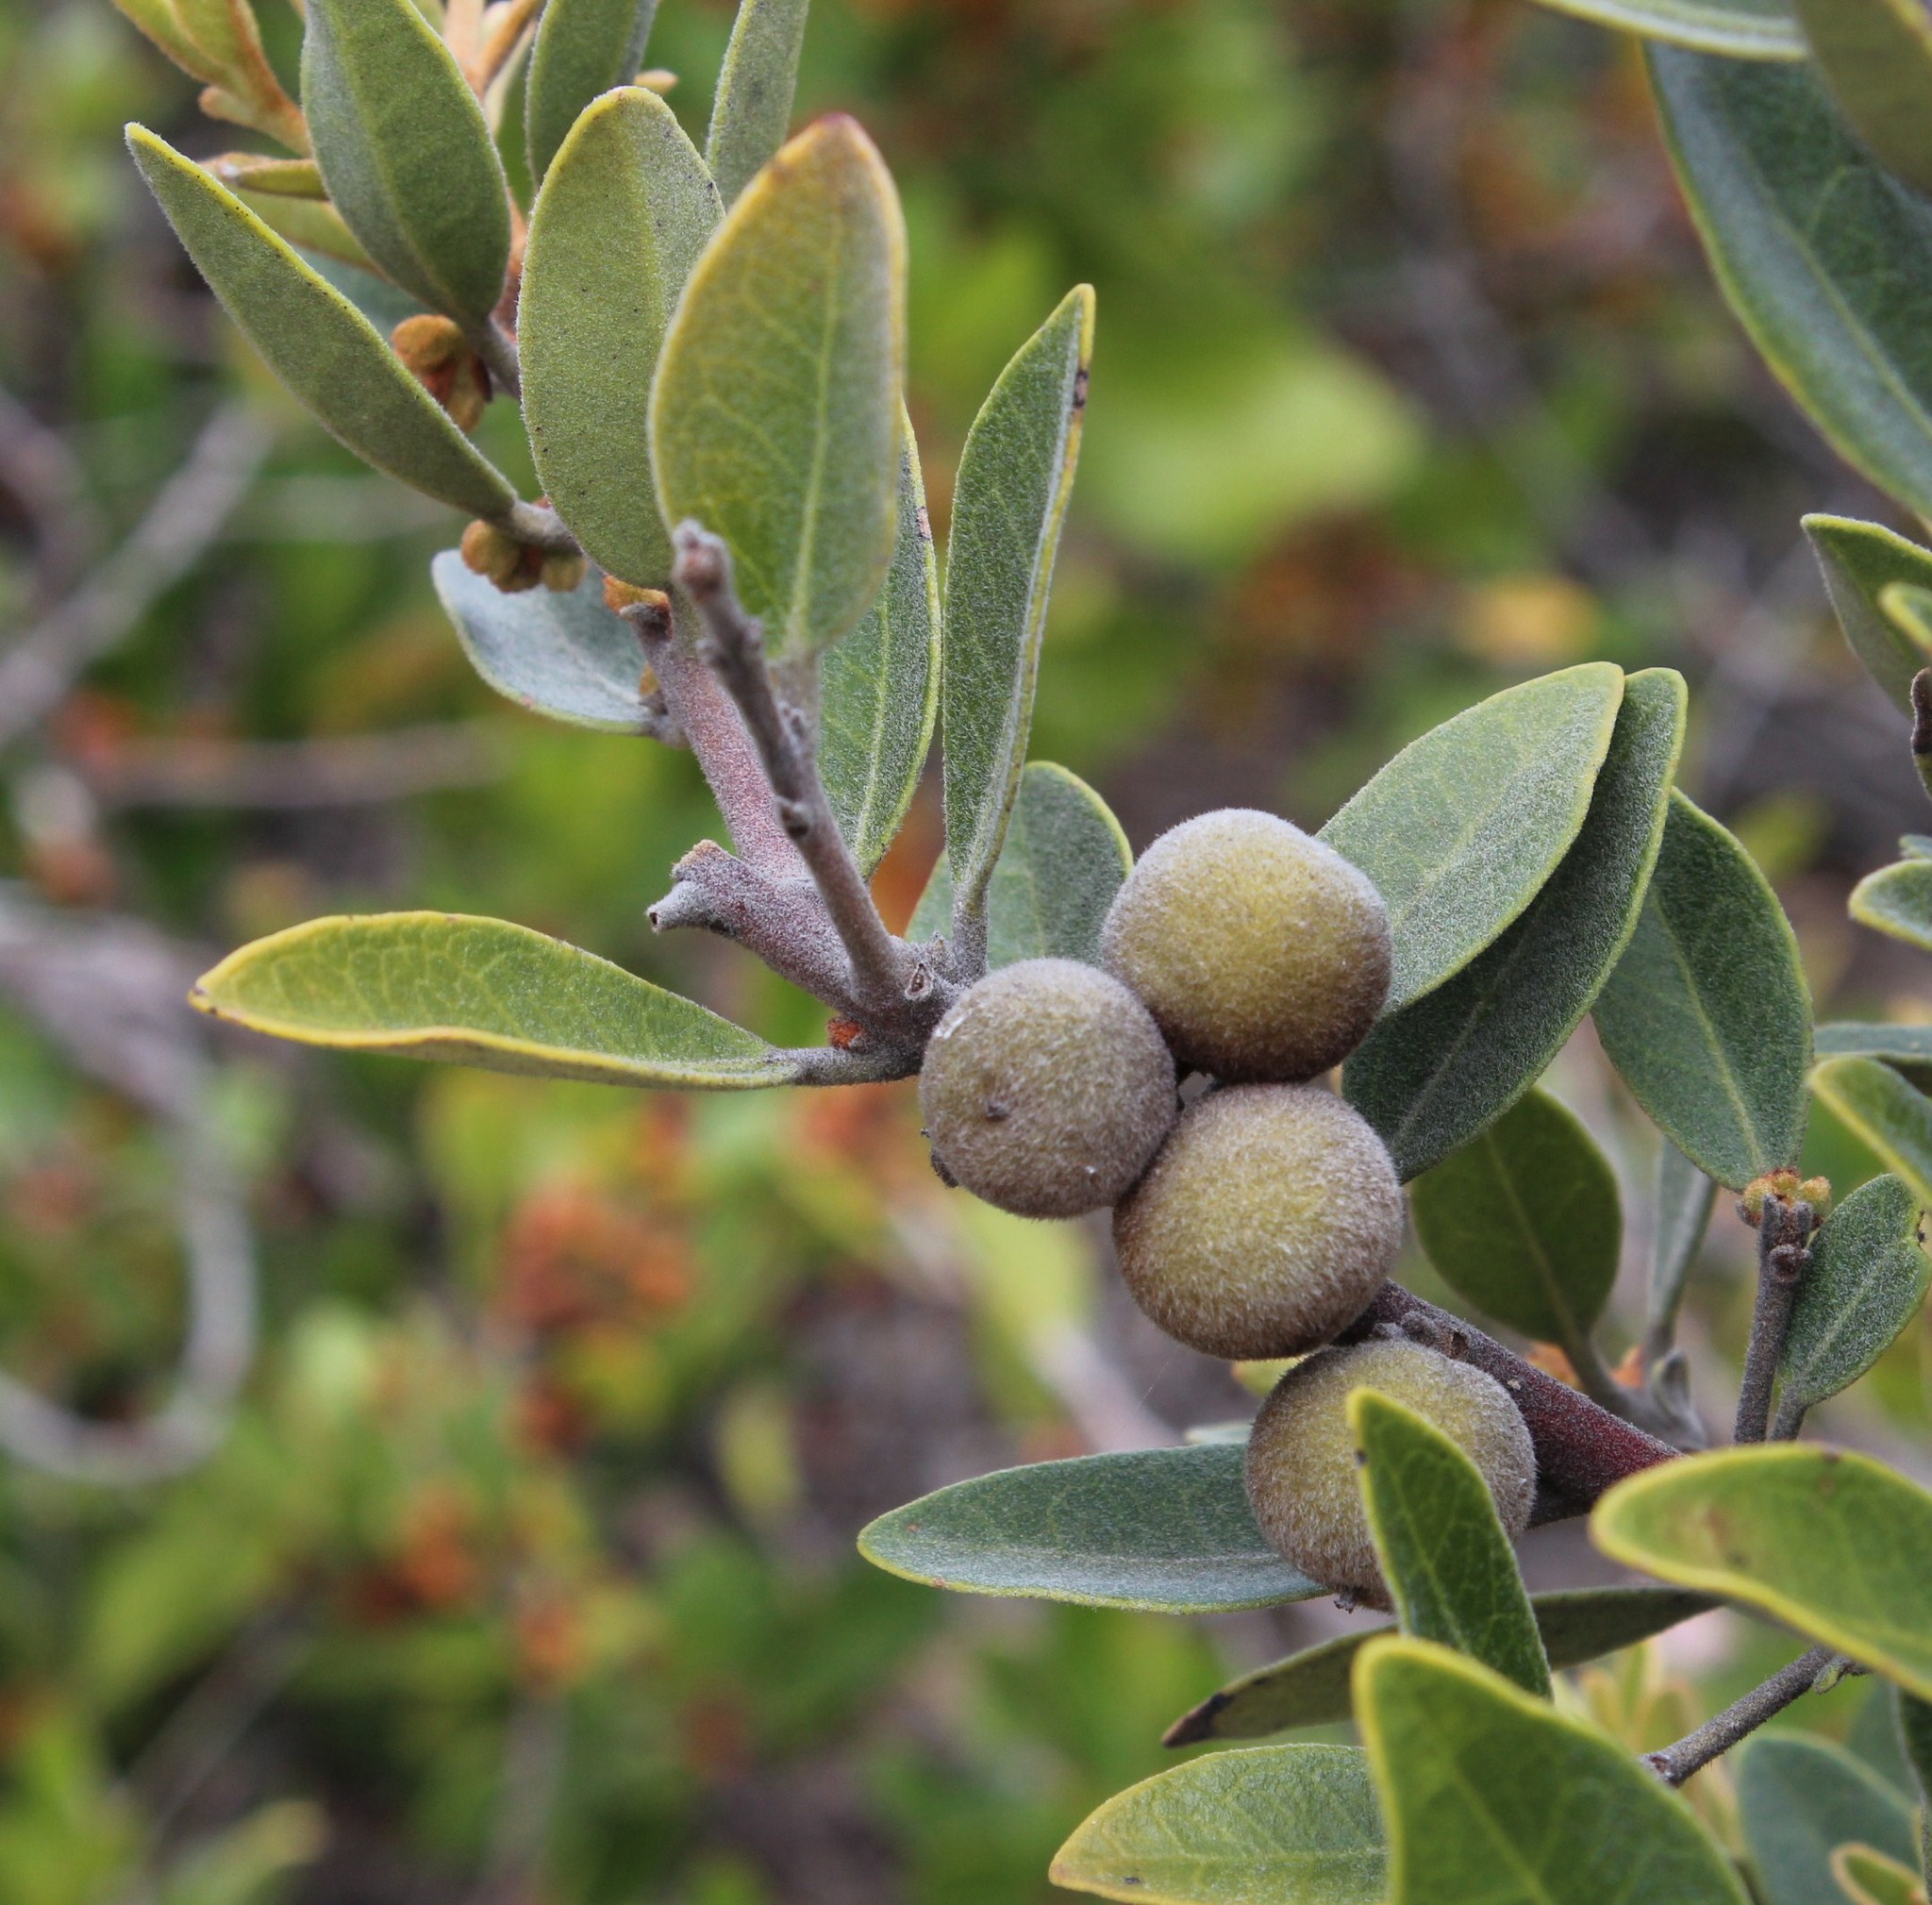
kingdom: Plantae
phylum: Tracheophyta
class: Magnoliopsida
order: Ericales
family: Ebenaceae
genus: Euclea
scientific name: Euclea polyandra
